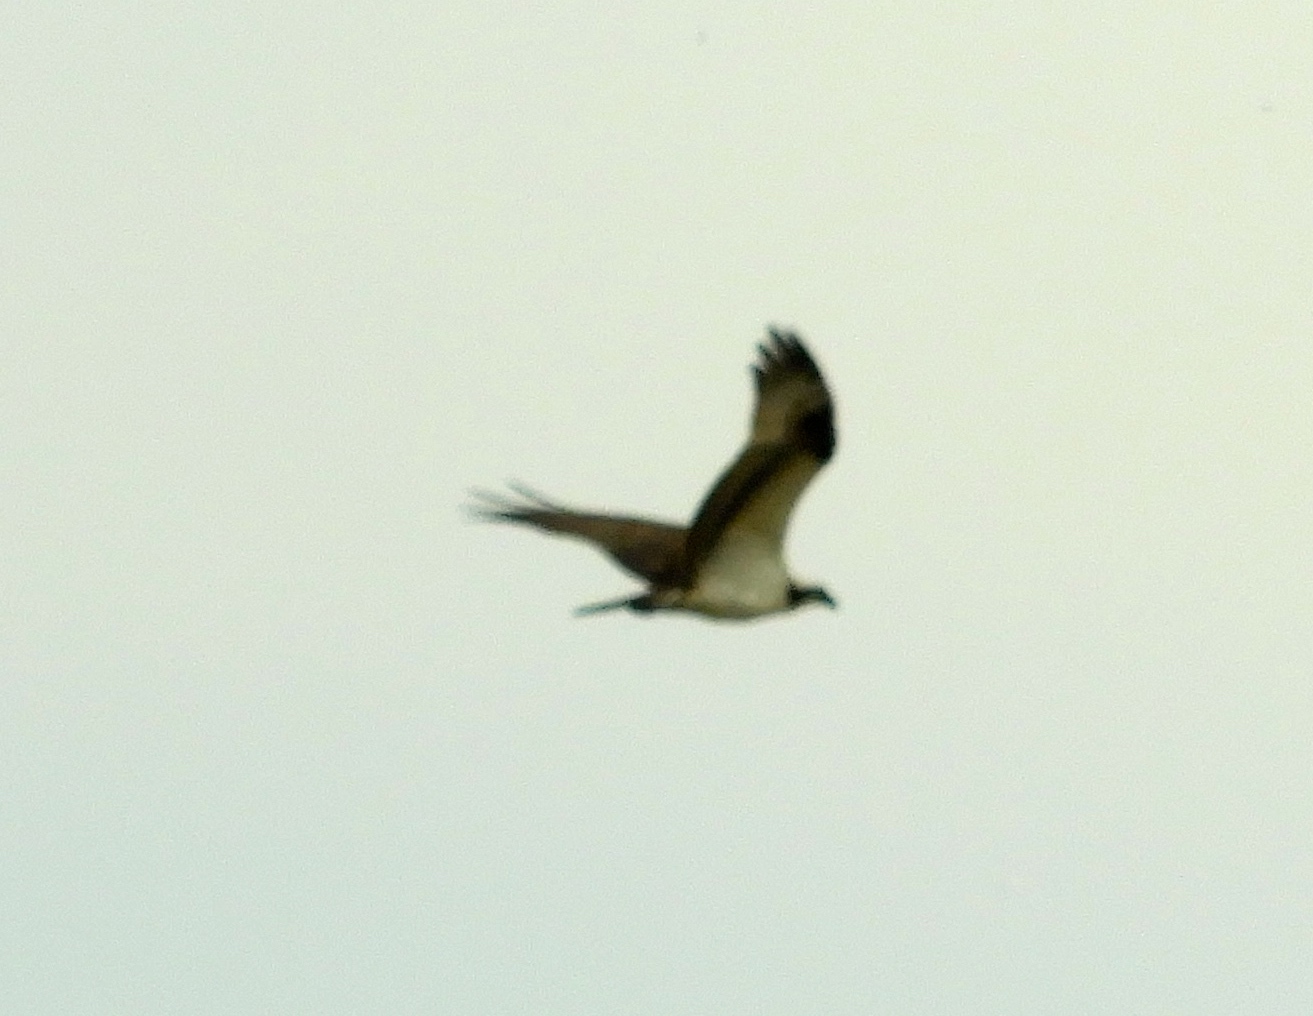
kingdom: Animalia
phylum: Chordata
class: Aves
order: Accipitriformes
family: Pandionidae
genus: Pandion
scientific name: Pandion haliaetus
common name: Osprey
